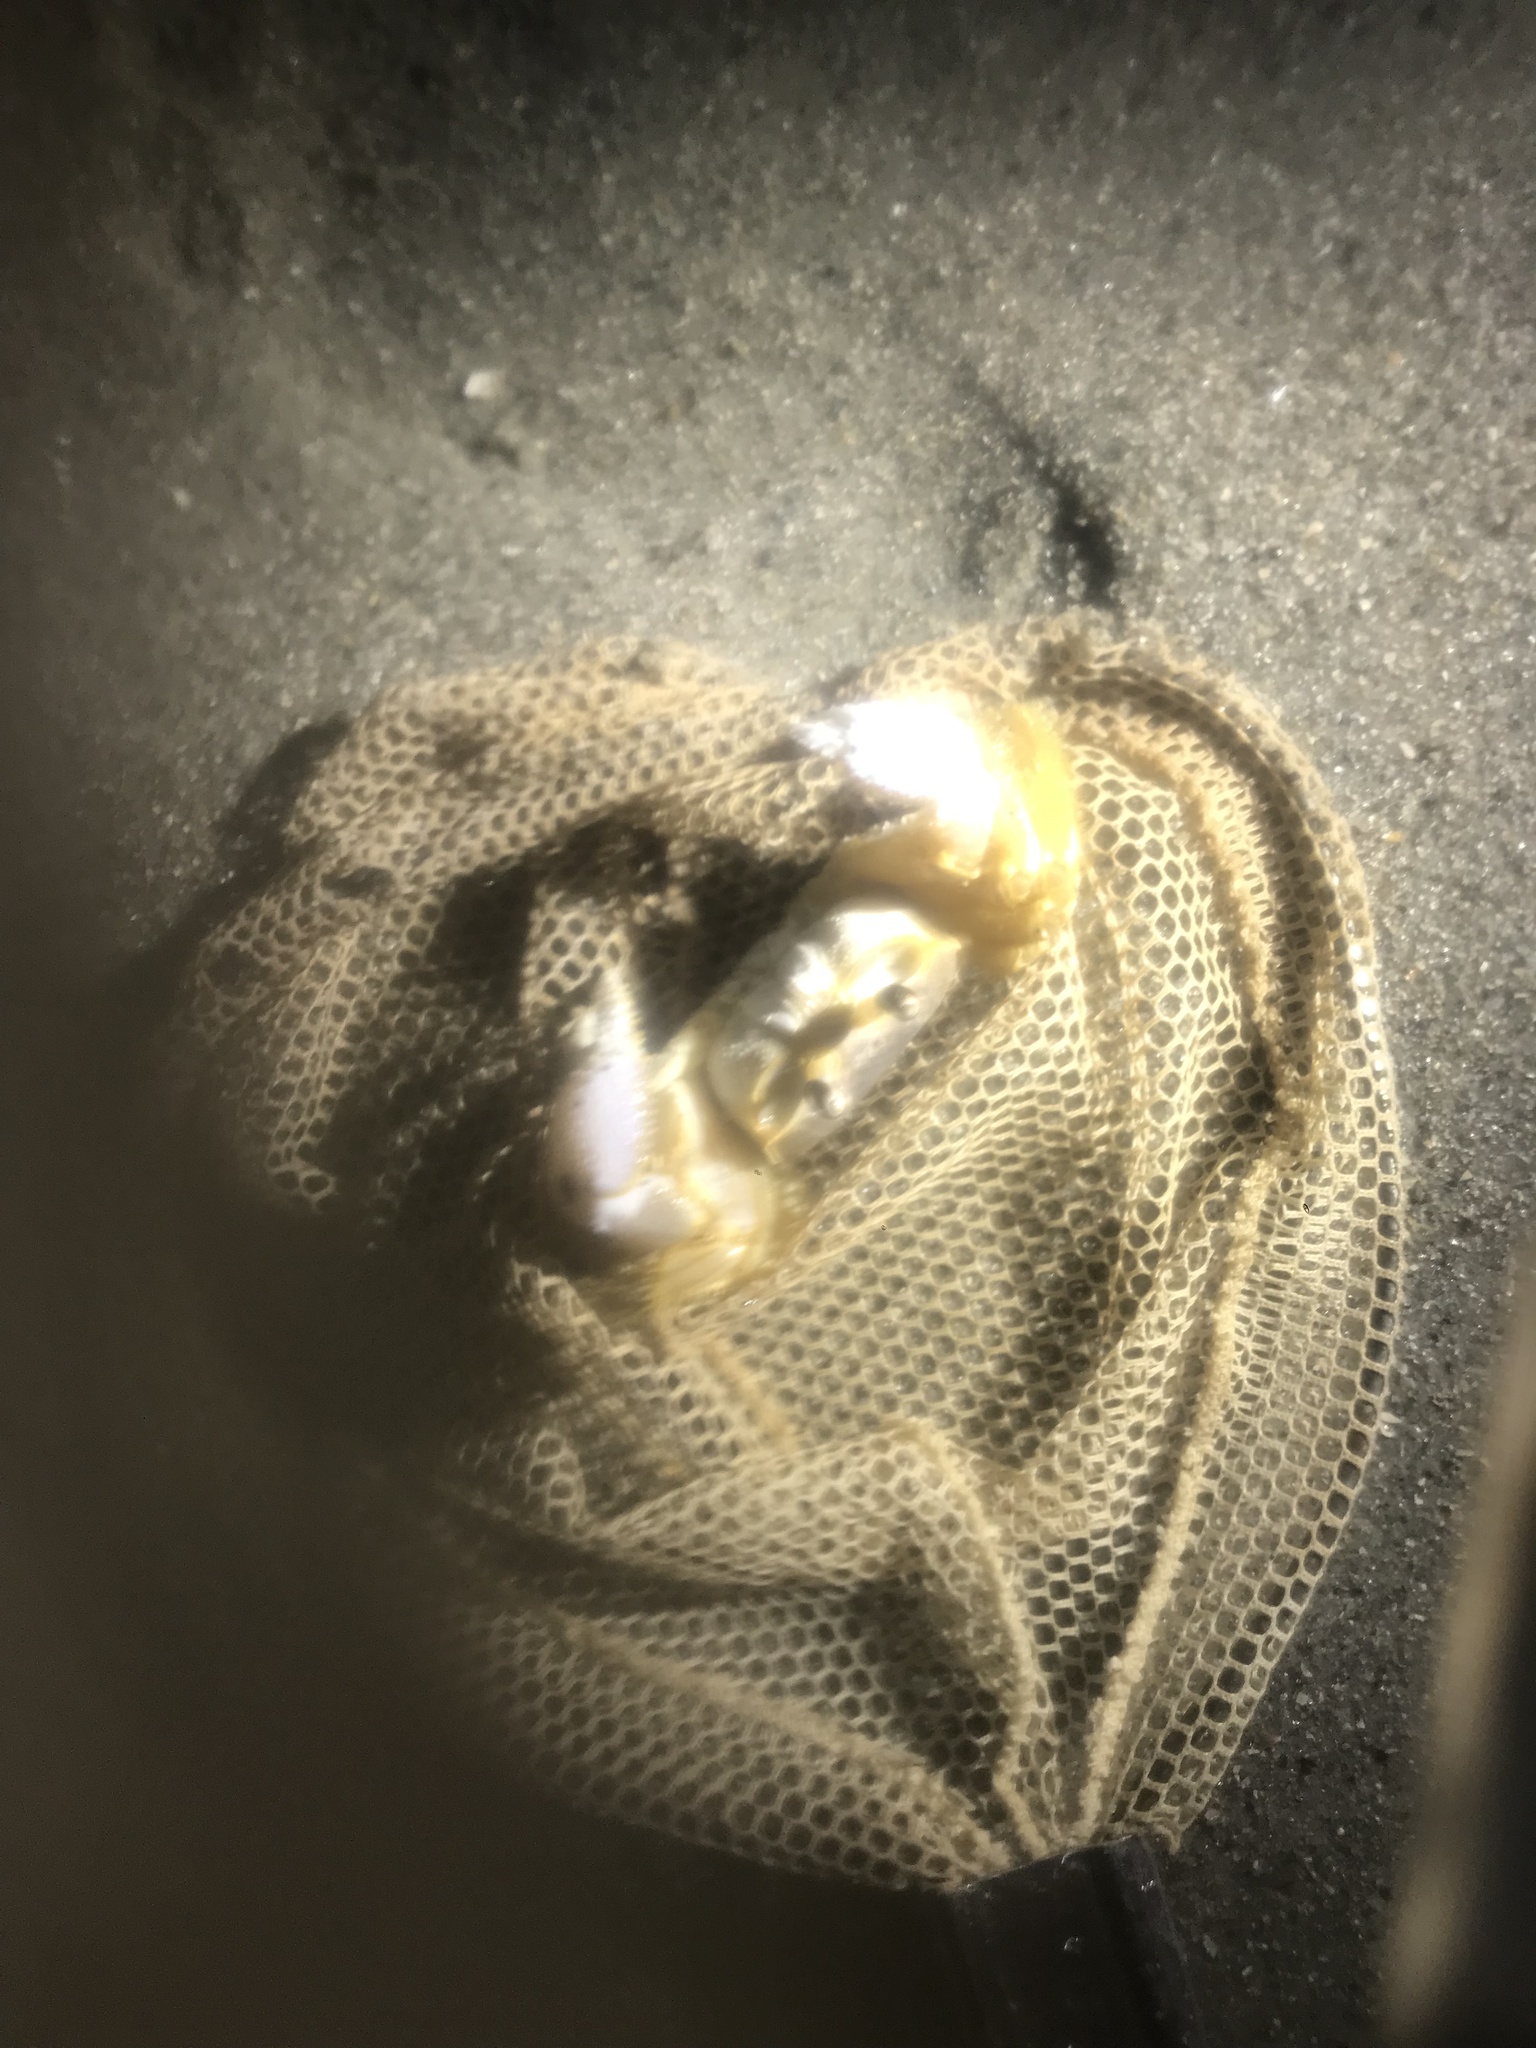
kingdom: Animalia
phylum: Arthropoda
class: Malacostraca
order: Decapoda
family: Ocypodidae
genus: Ocypode
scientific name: Ocypode quadrata
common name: Ghost crab
